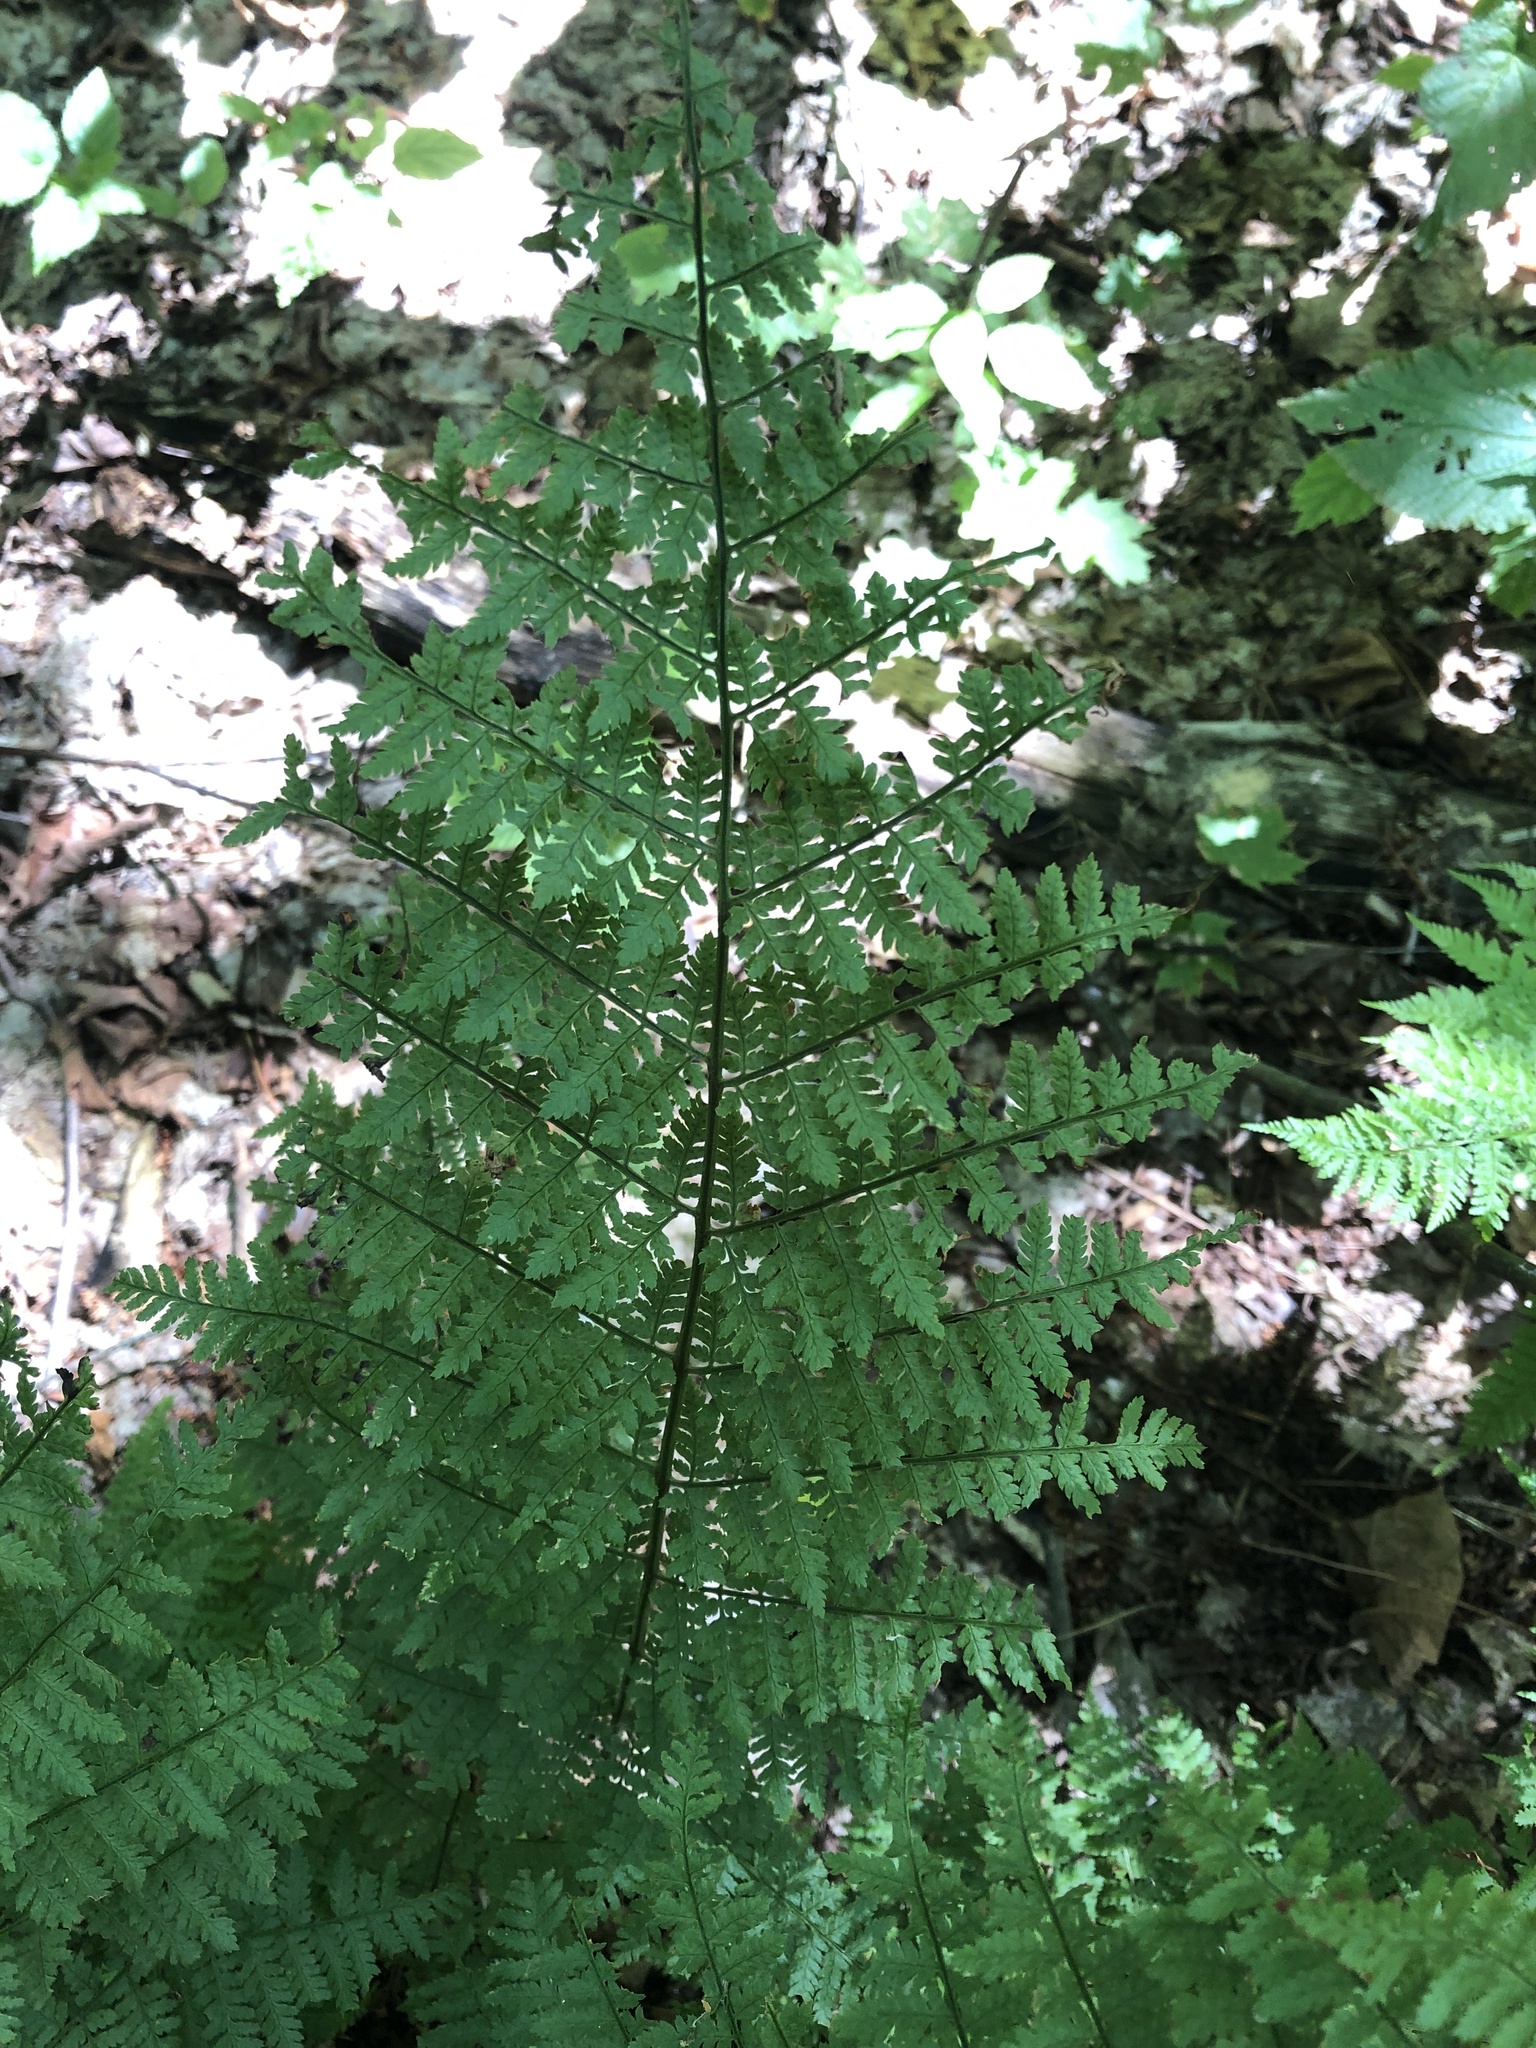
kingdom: Plantae
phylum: Tracheophyta
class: Polypodiopsida
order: Polypodiales
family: Dryopteridaceae
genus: Dryopteris
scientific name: Dryopteris intermedia
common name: Evergreen wood fern
